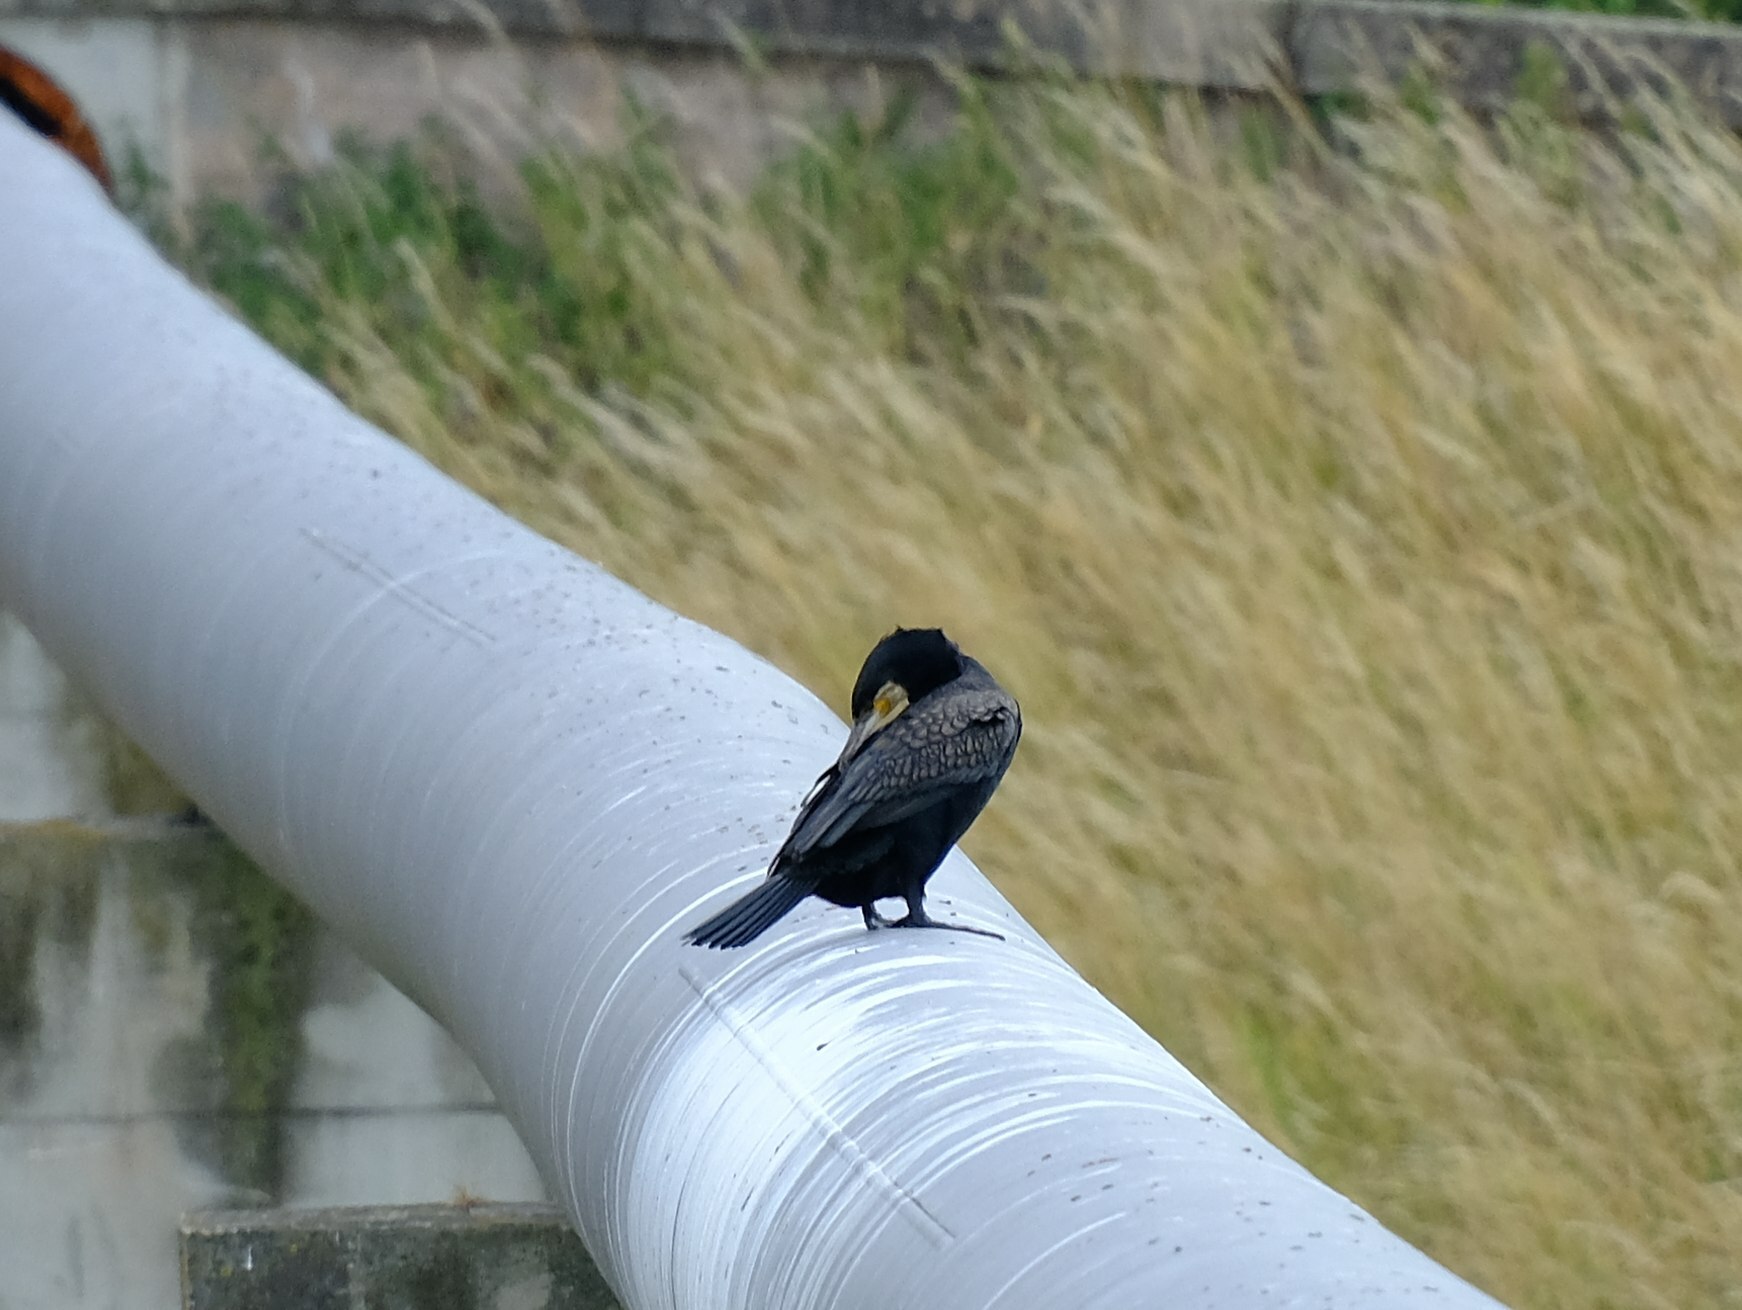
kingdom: Animalia
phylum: Chordata
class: Aves
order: Suliformes
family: Phalacrocoracidae
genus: Phalacrocorax
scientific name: Phalacrocorax carbo
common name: Great cormorant
